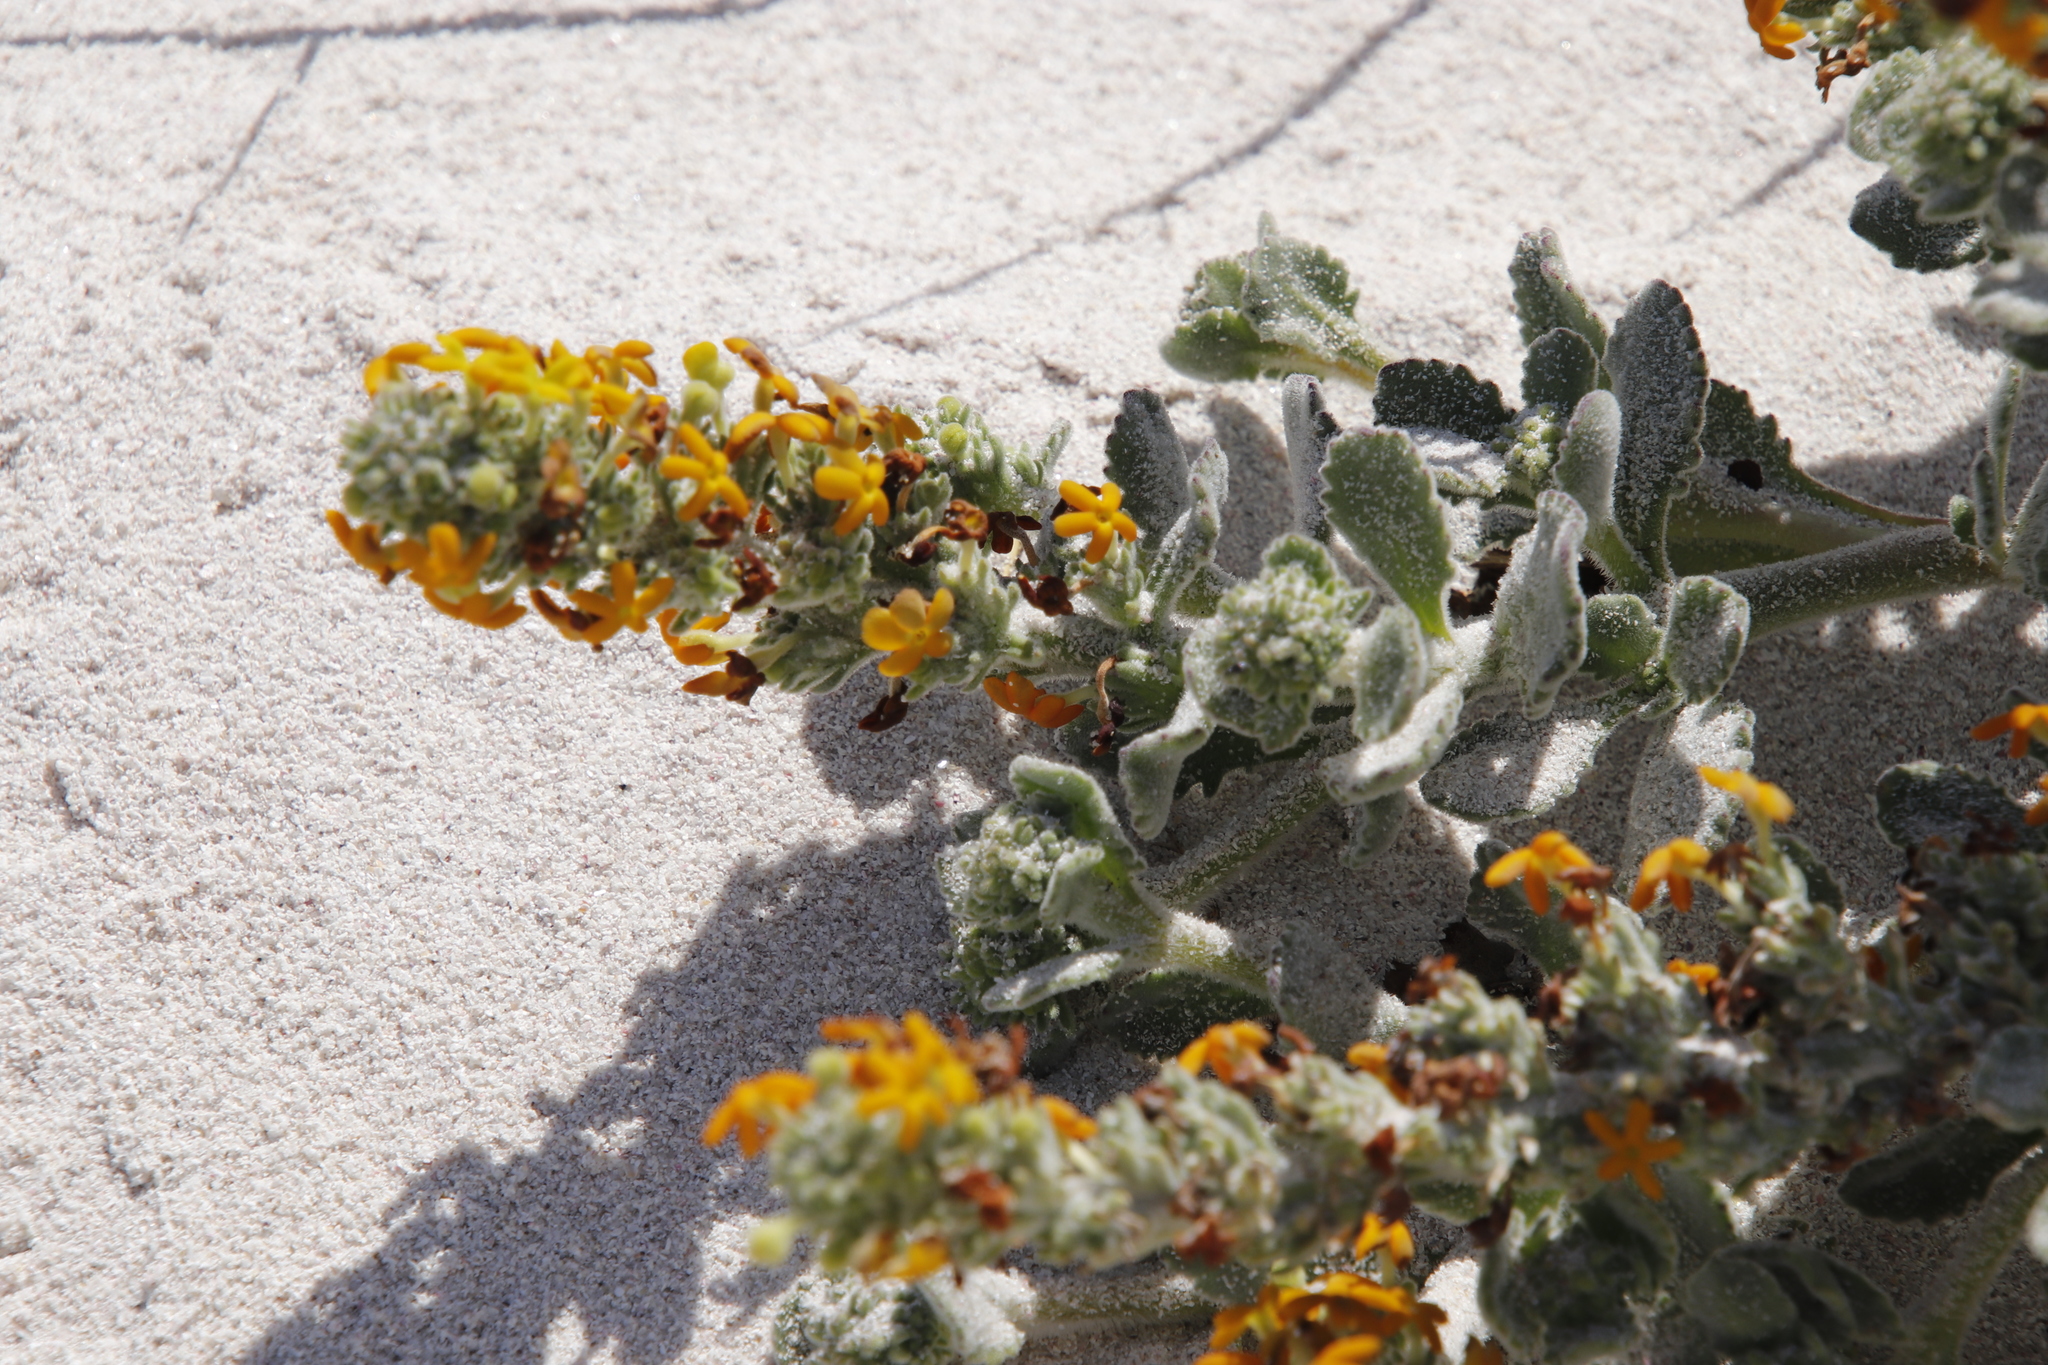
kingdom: Plantae
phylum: Tracheophyta
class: Magnoliopsida
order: Lamiales
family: Scrophulariaceae
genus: Manulea
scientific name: Manulea tomentosa
